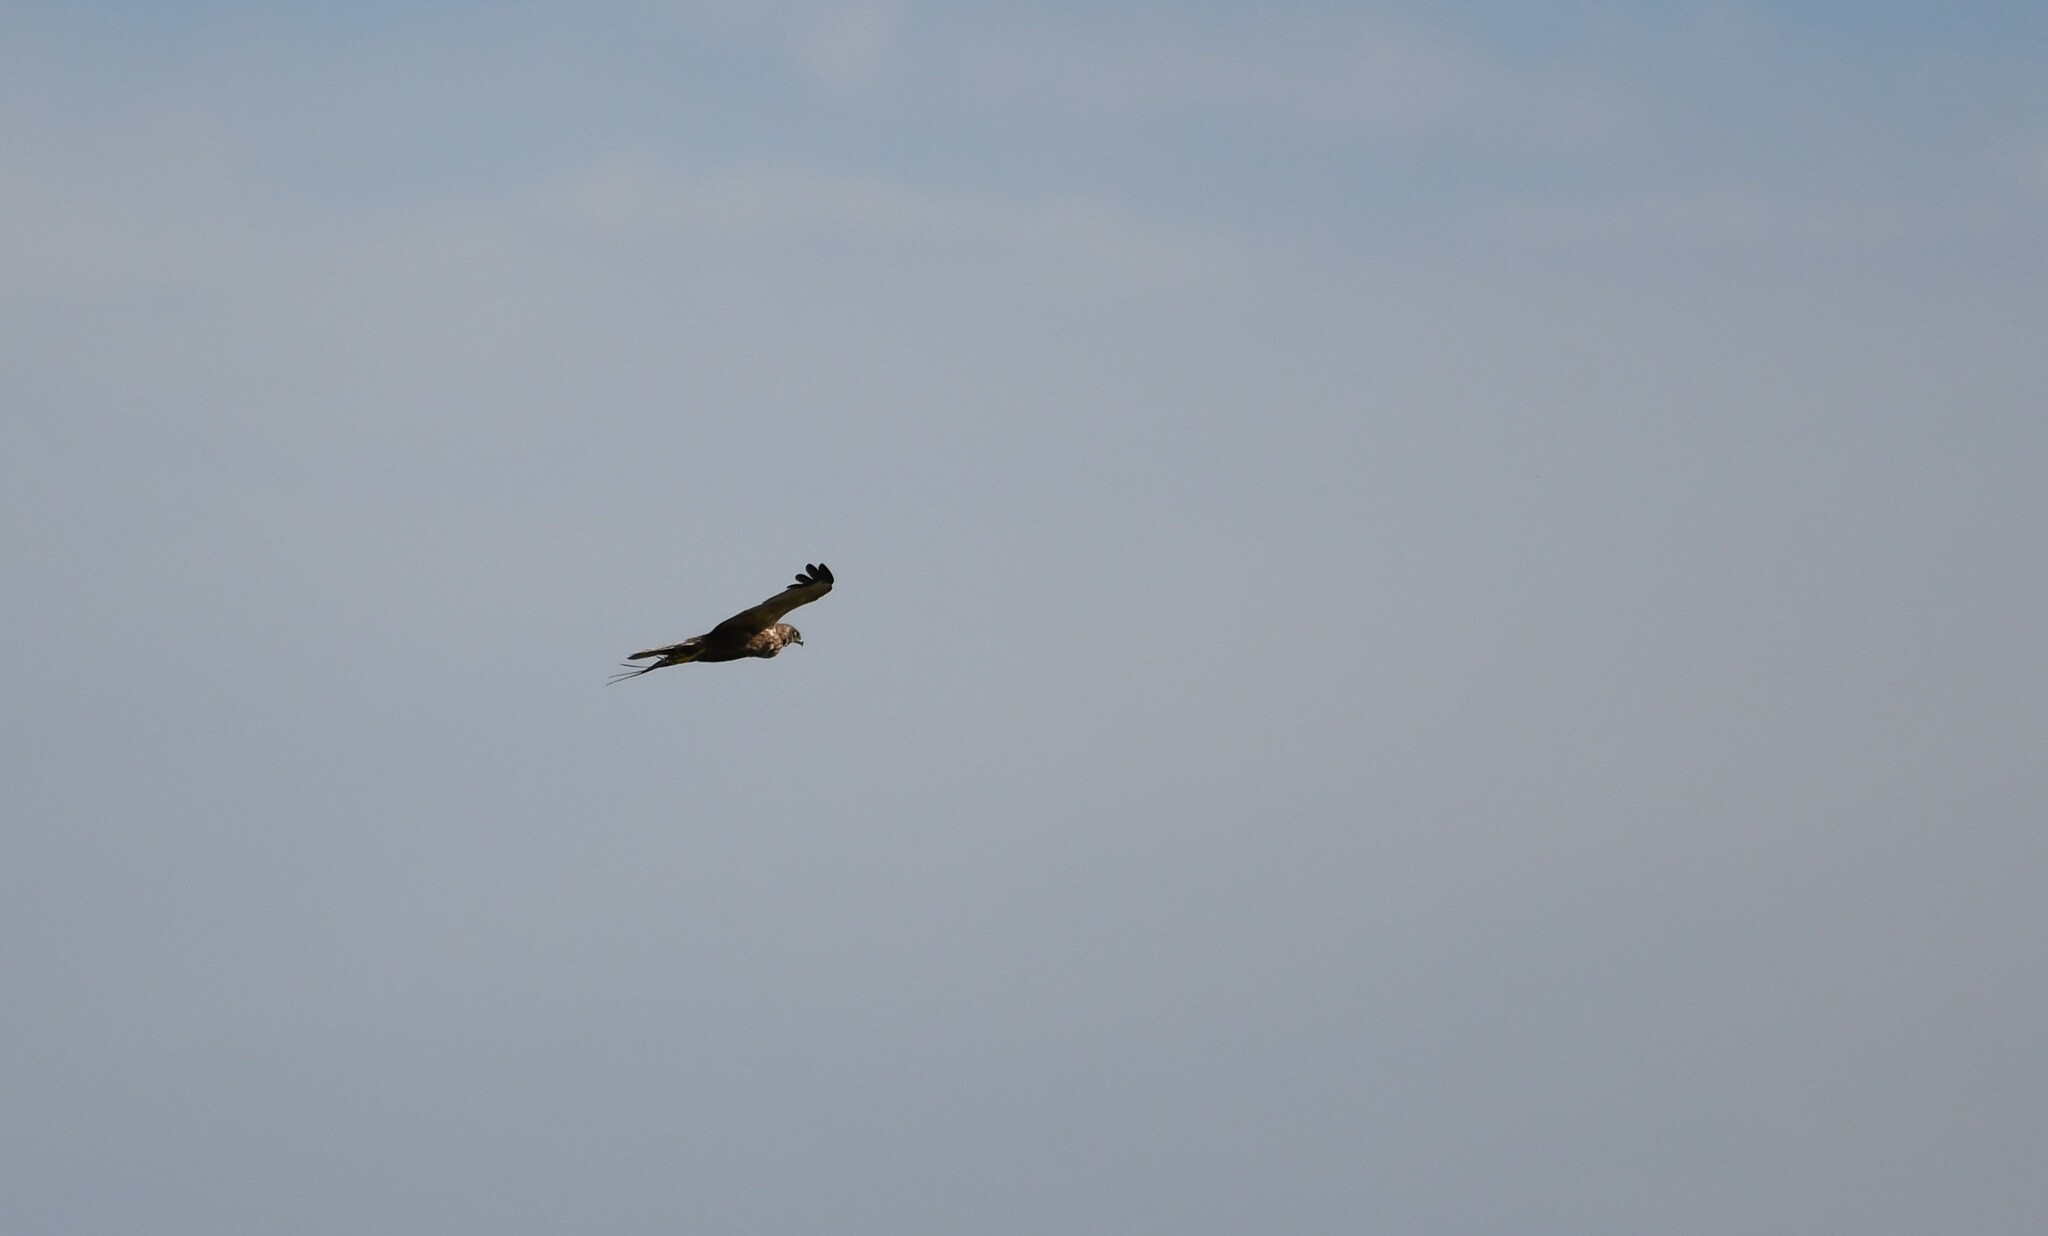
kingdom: Animalia
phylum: Chordata
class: Aves
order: Accipitriformes
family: Accipitridae
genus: Circus
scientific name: Circus aeruginosus
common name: Western marsh harrier
